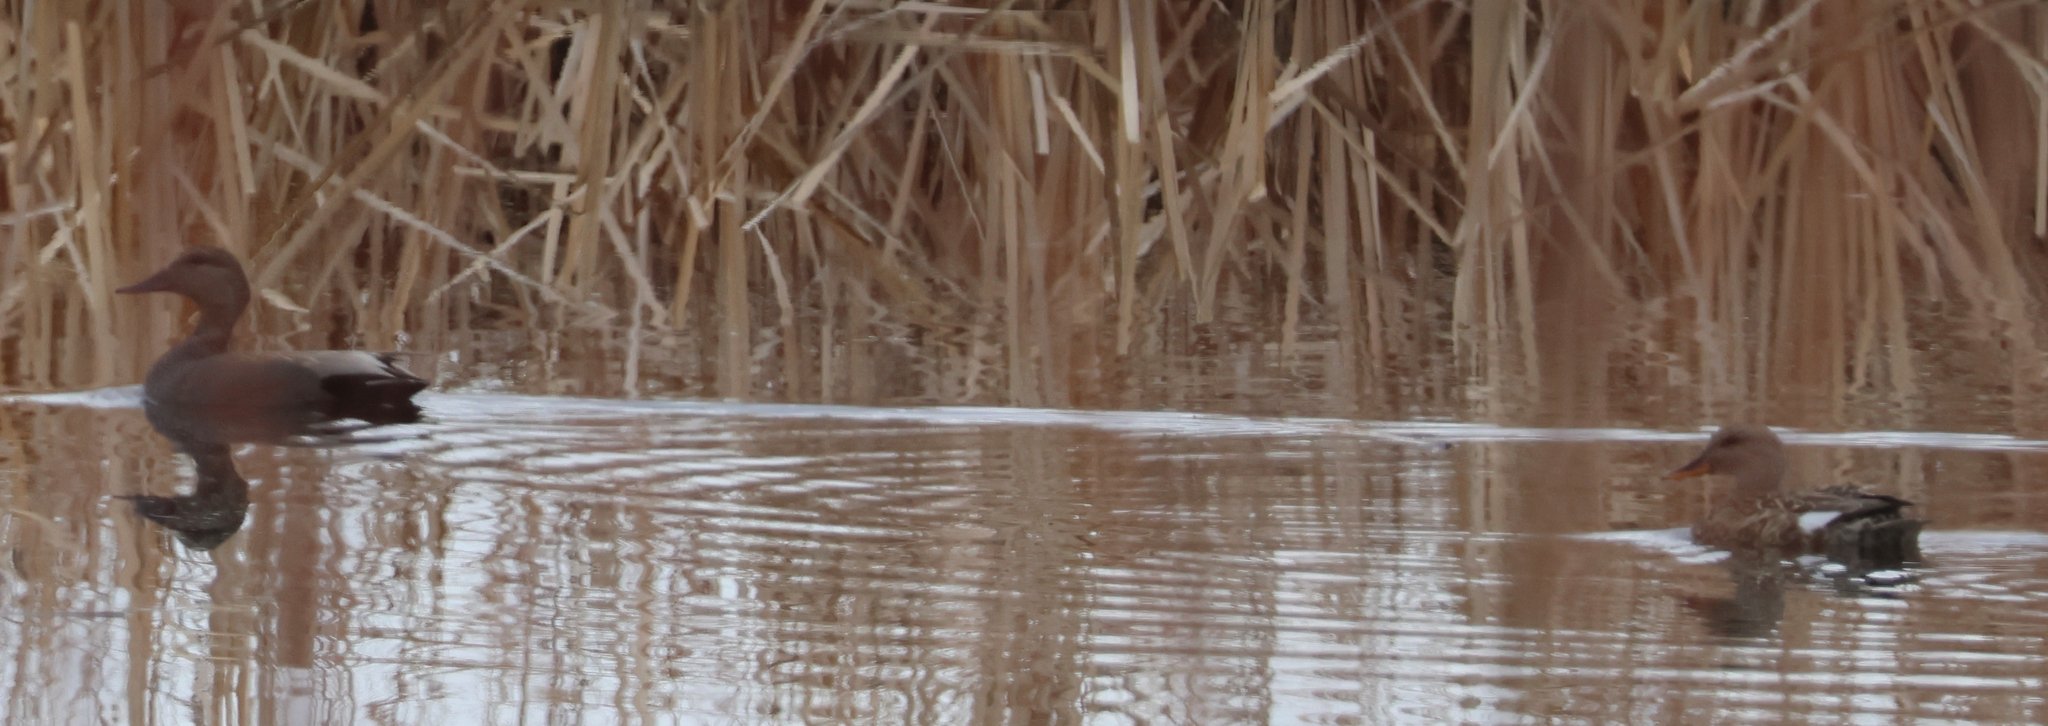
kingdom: Animalia
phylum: Chordata
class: Aves
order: Anseriformes
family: Anatidae
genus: Mareca
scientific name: Mareca strepera
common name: Gadwall
